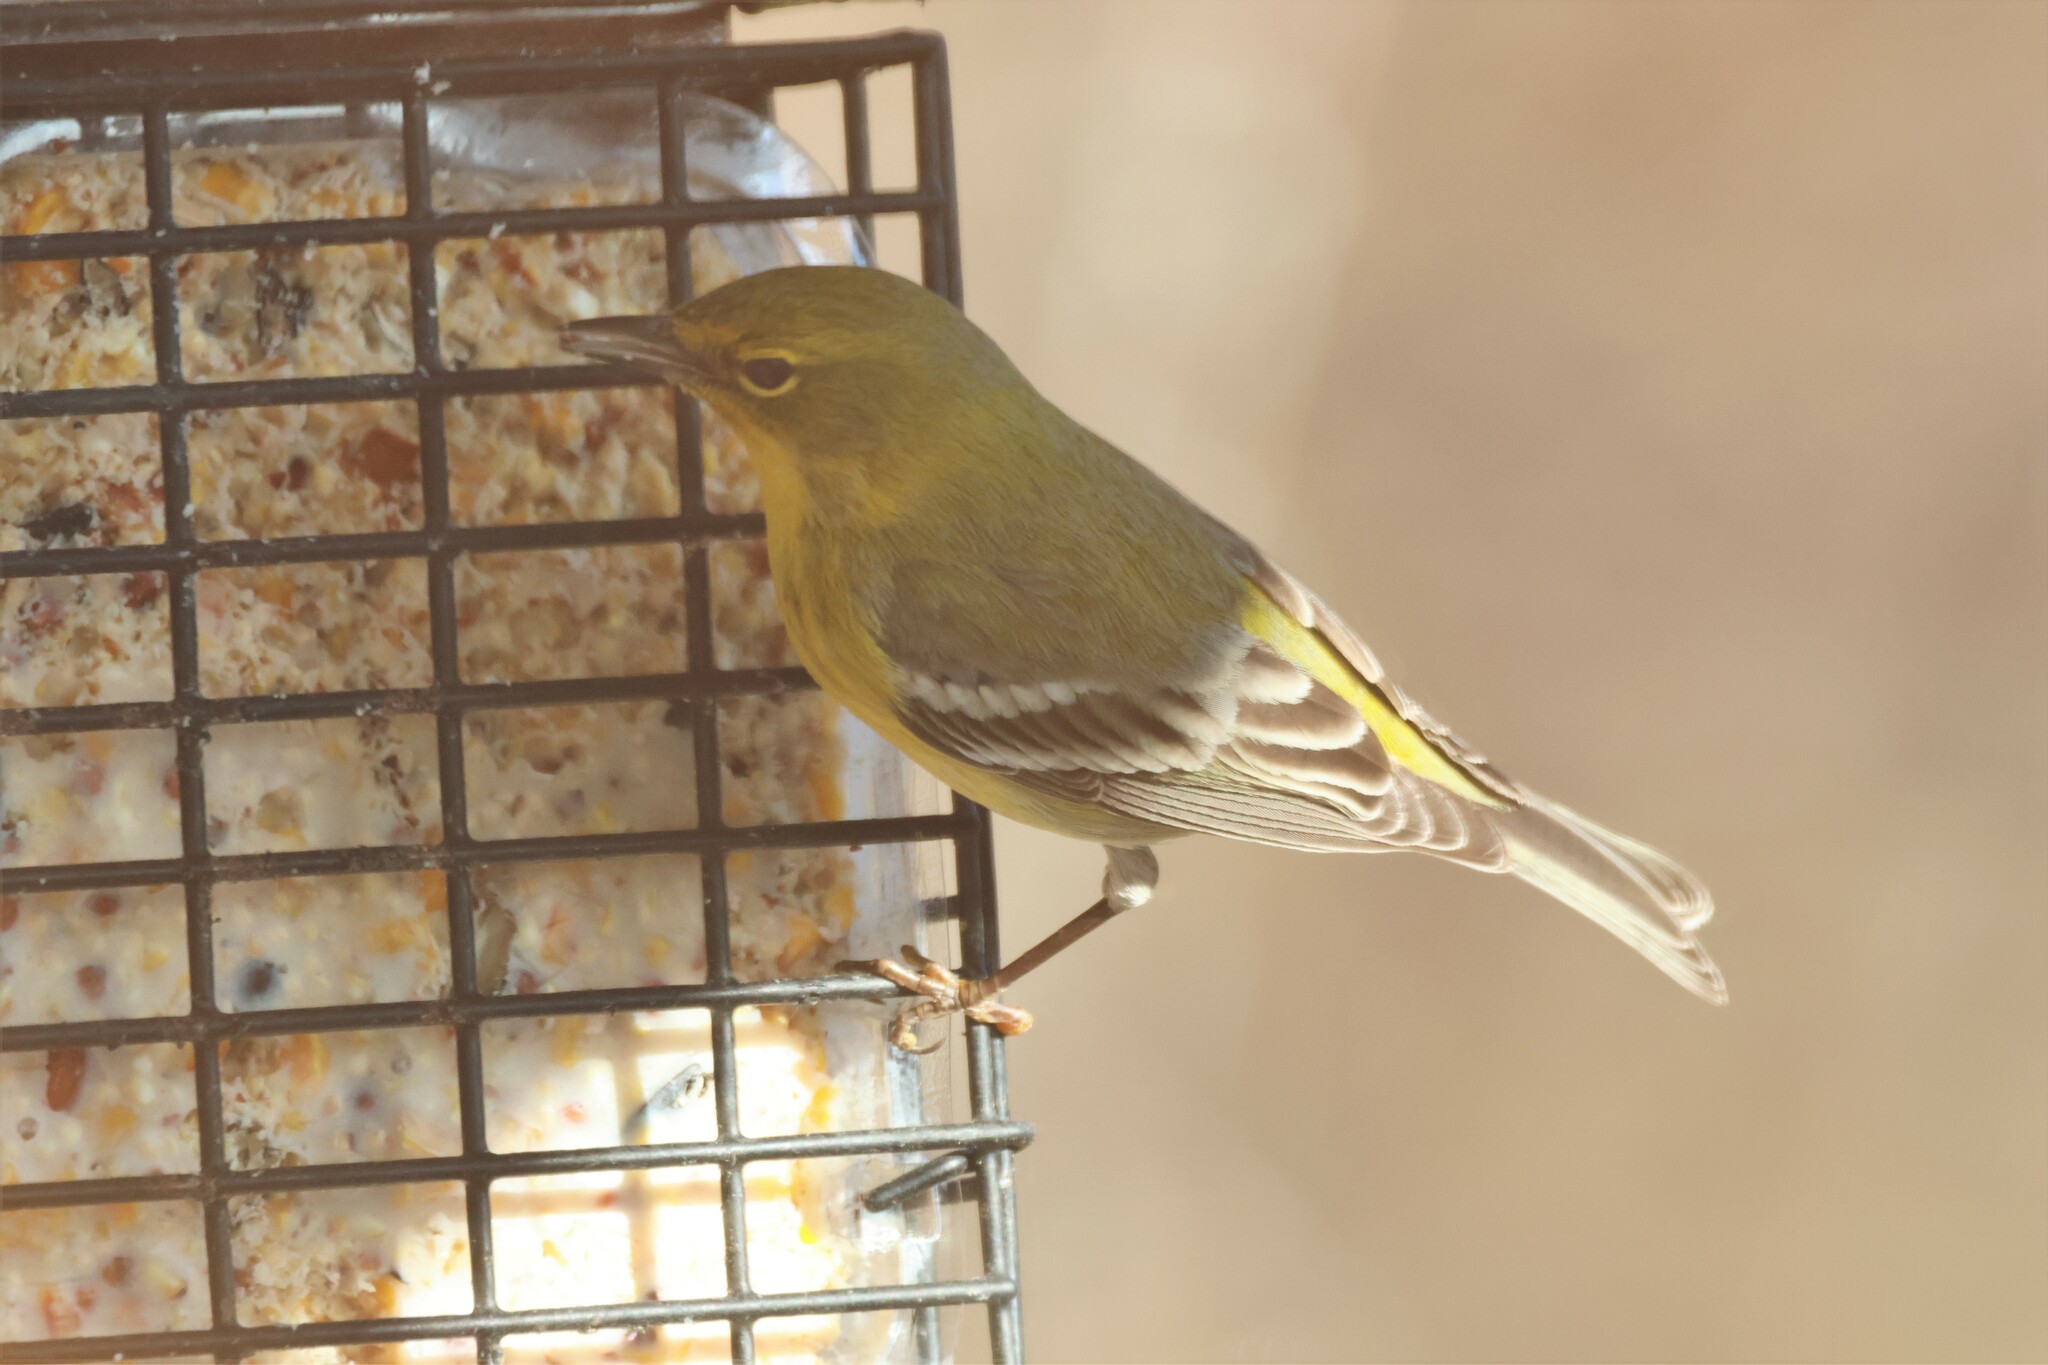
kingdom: Animalia
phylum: Chordata
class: Aves
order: Passeriformes
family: Parulidae
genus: Setophaga
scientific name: Setophaga pinus
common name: Pine warbler
